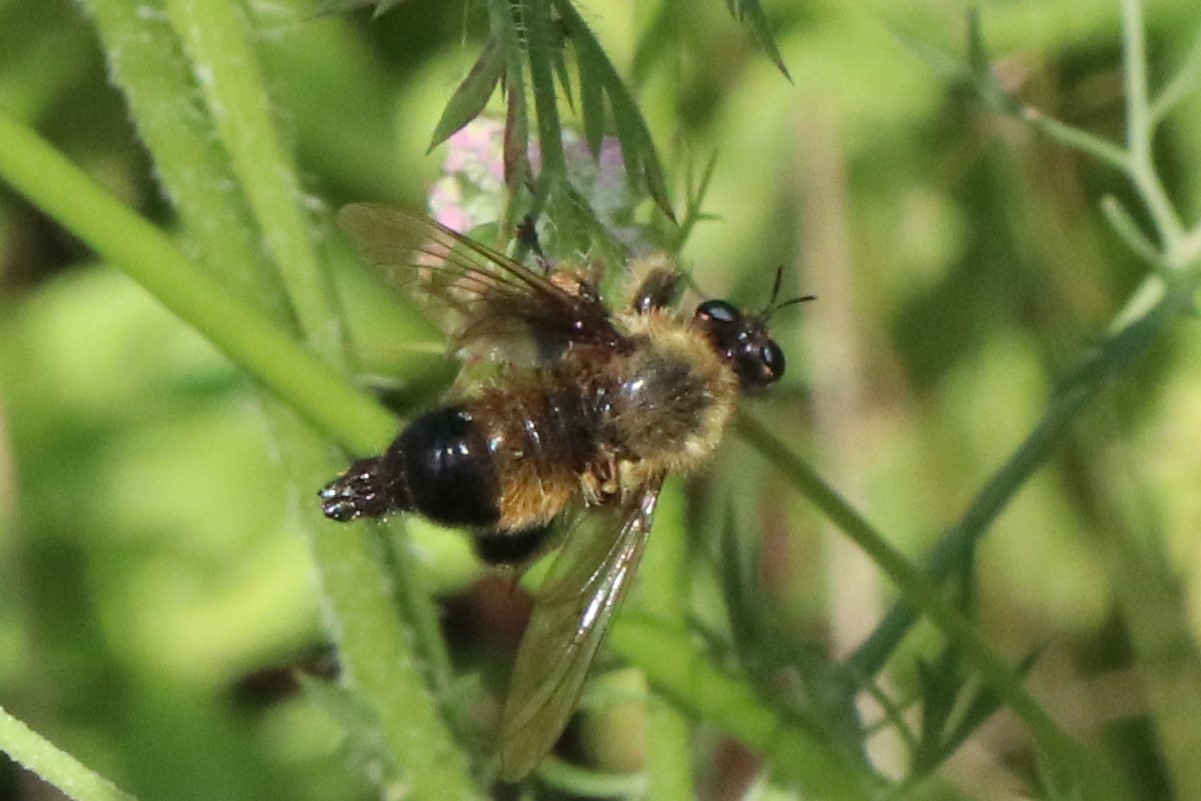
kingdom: Animalia
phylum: Arthropoda
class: Insecta
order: Diptera
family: Asilidae
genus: Laphria
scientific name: Laphria sacrator
